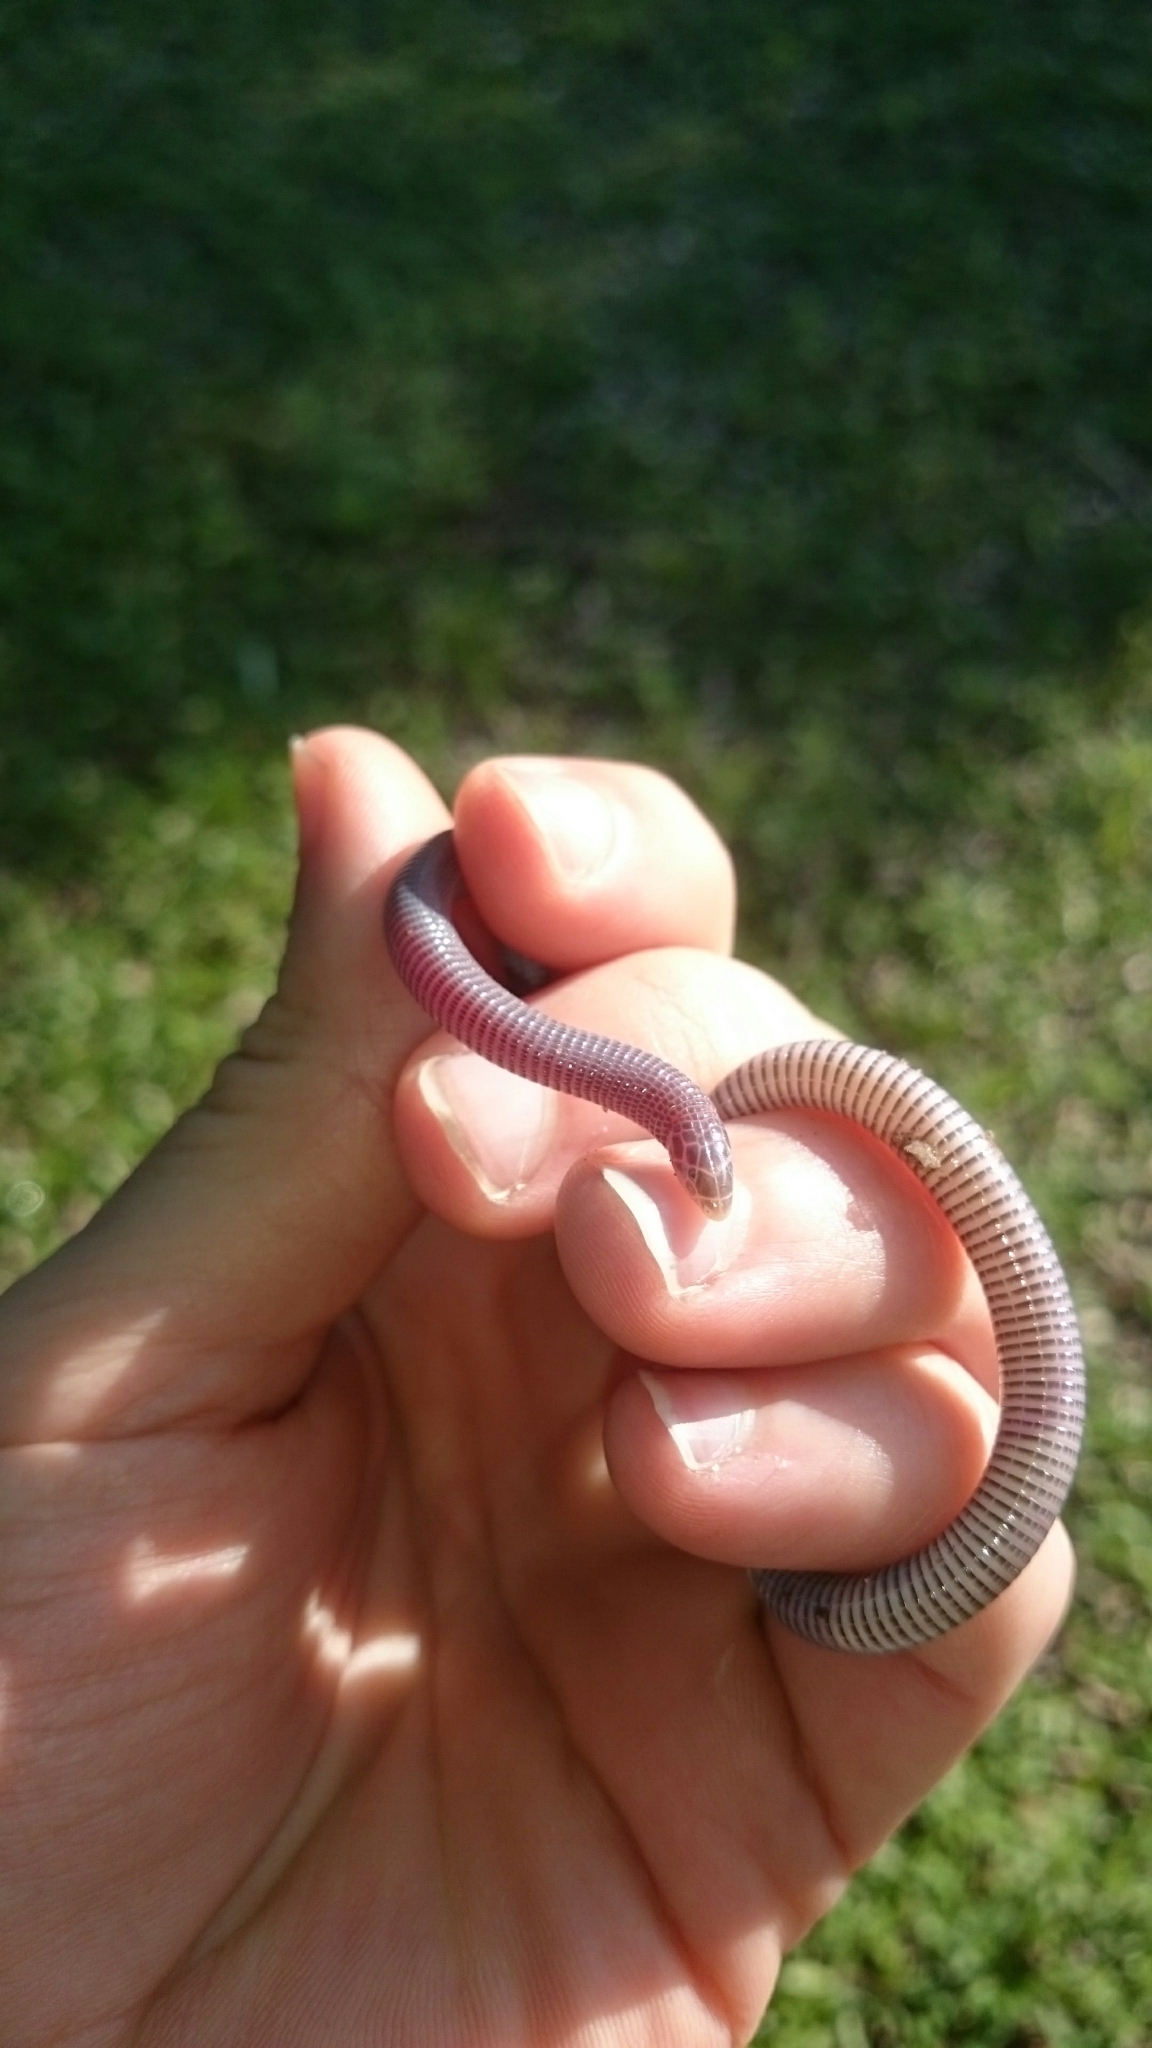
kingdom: Animalia
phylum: Chordata
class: Squamata
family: Amphisbaenidae
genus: Zygaspis
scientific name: Zygaspis arenicola
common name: Sand-dwelling dwarf worm lizard
